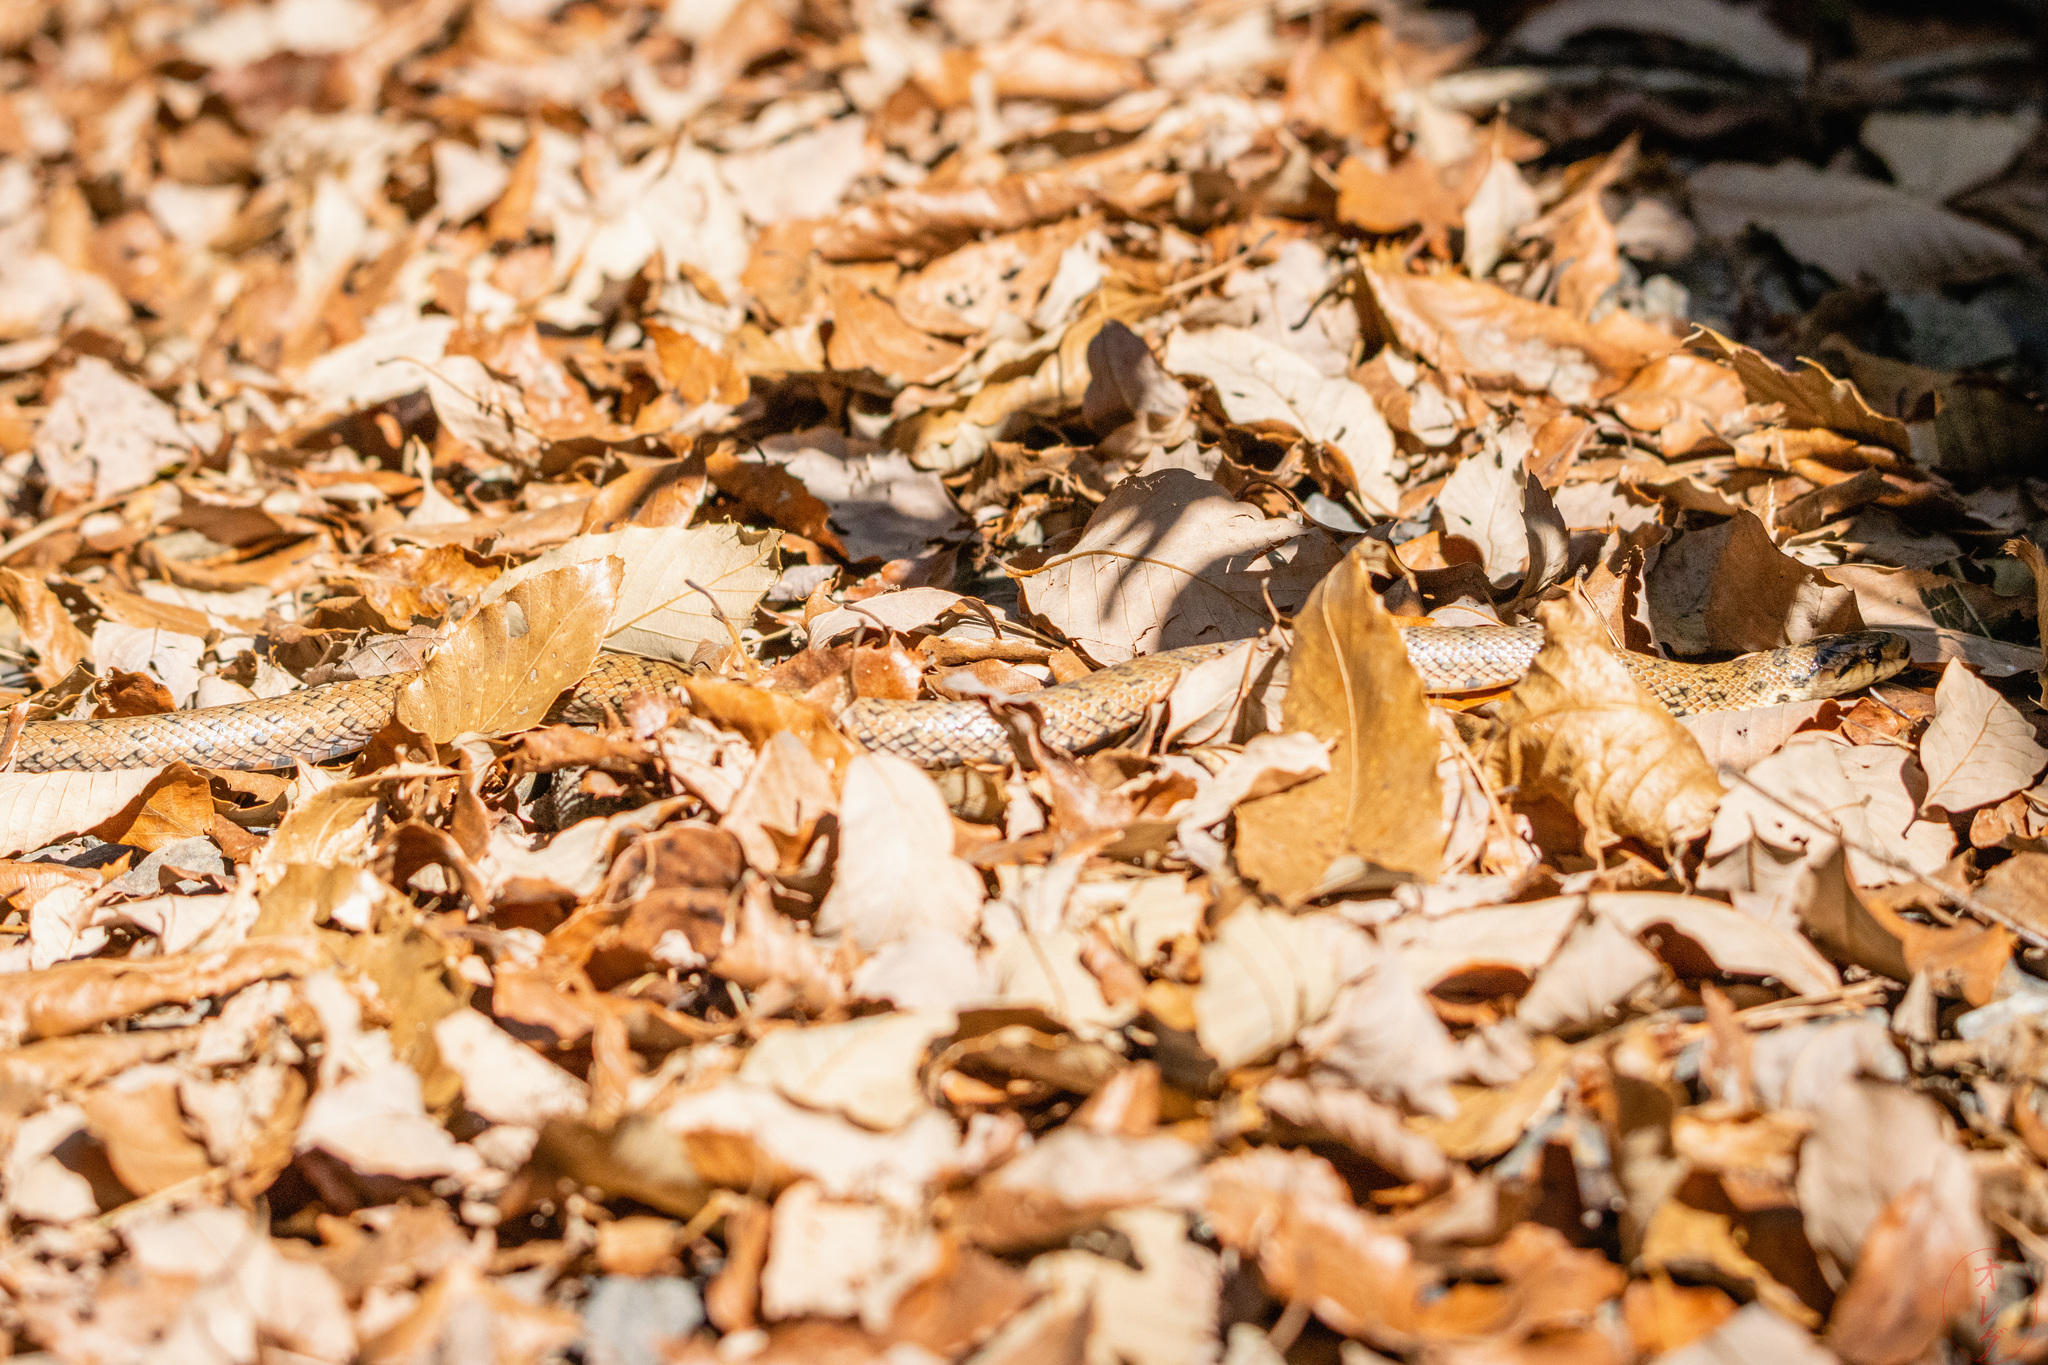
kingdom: Animalia
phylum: Chordata
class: Squamata
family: Colubridae
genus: Euprepiophis
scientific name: Euprepiophis conspicillata
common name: Burrowing ratsnake
